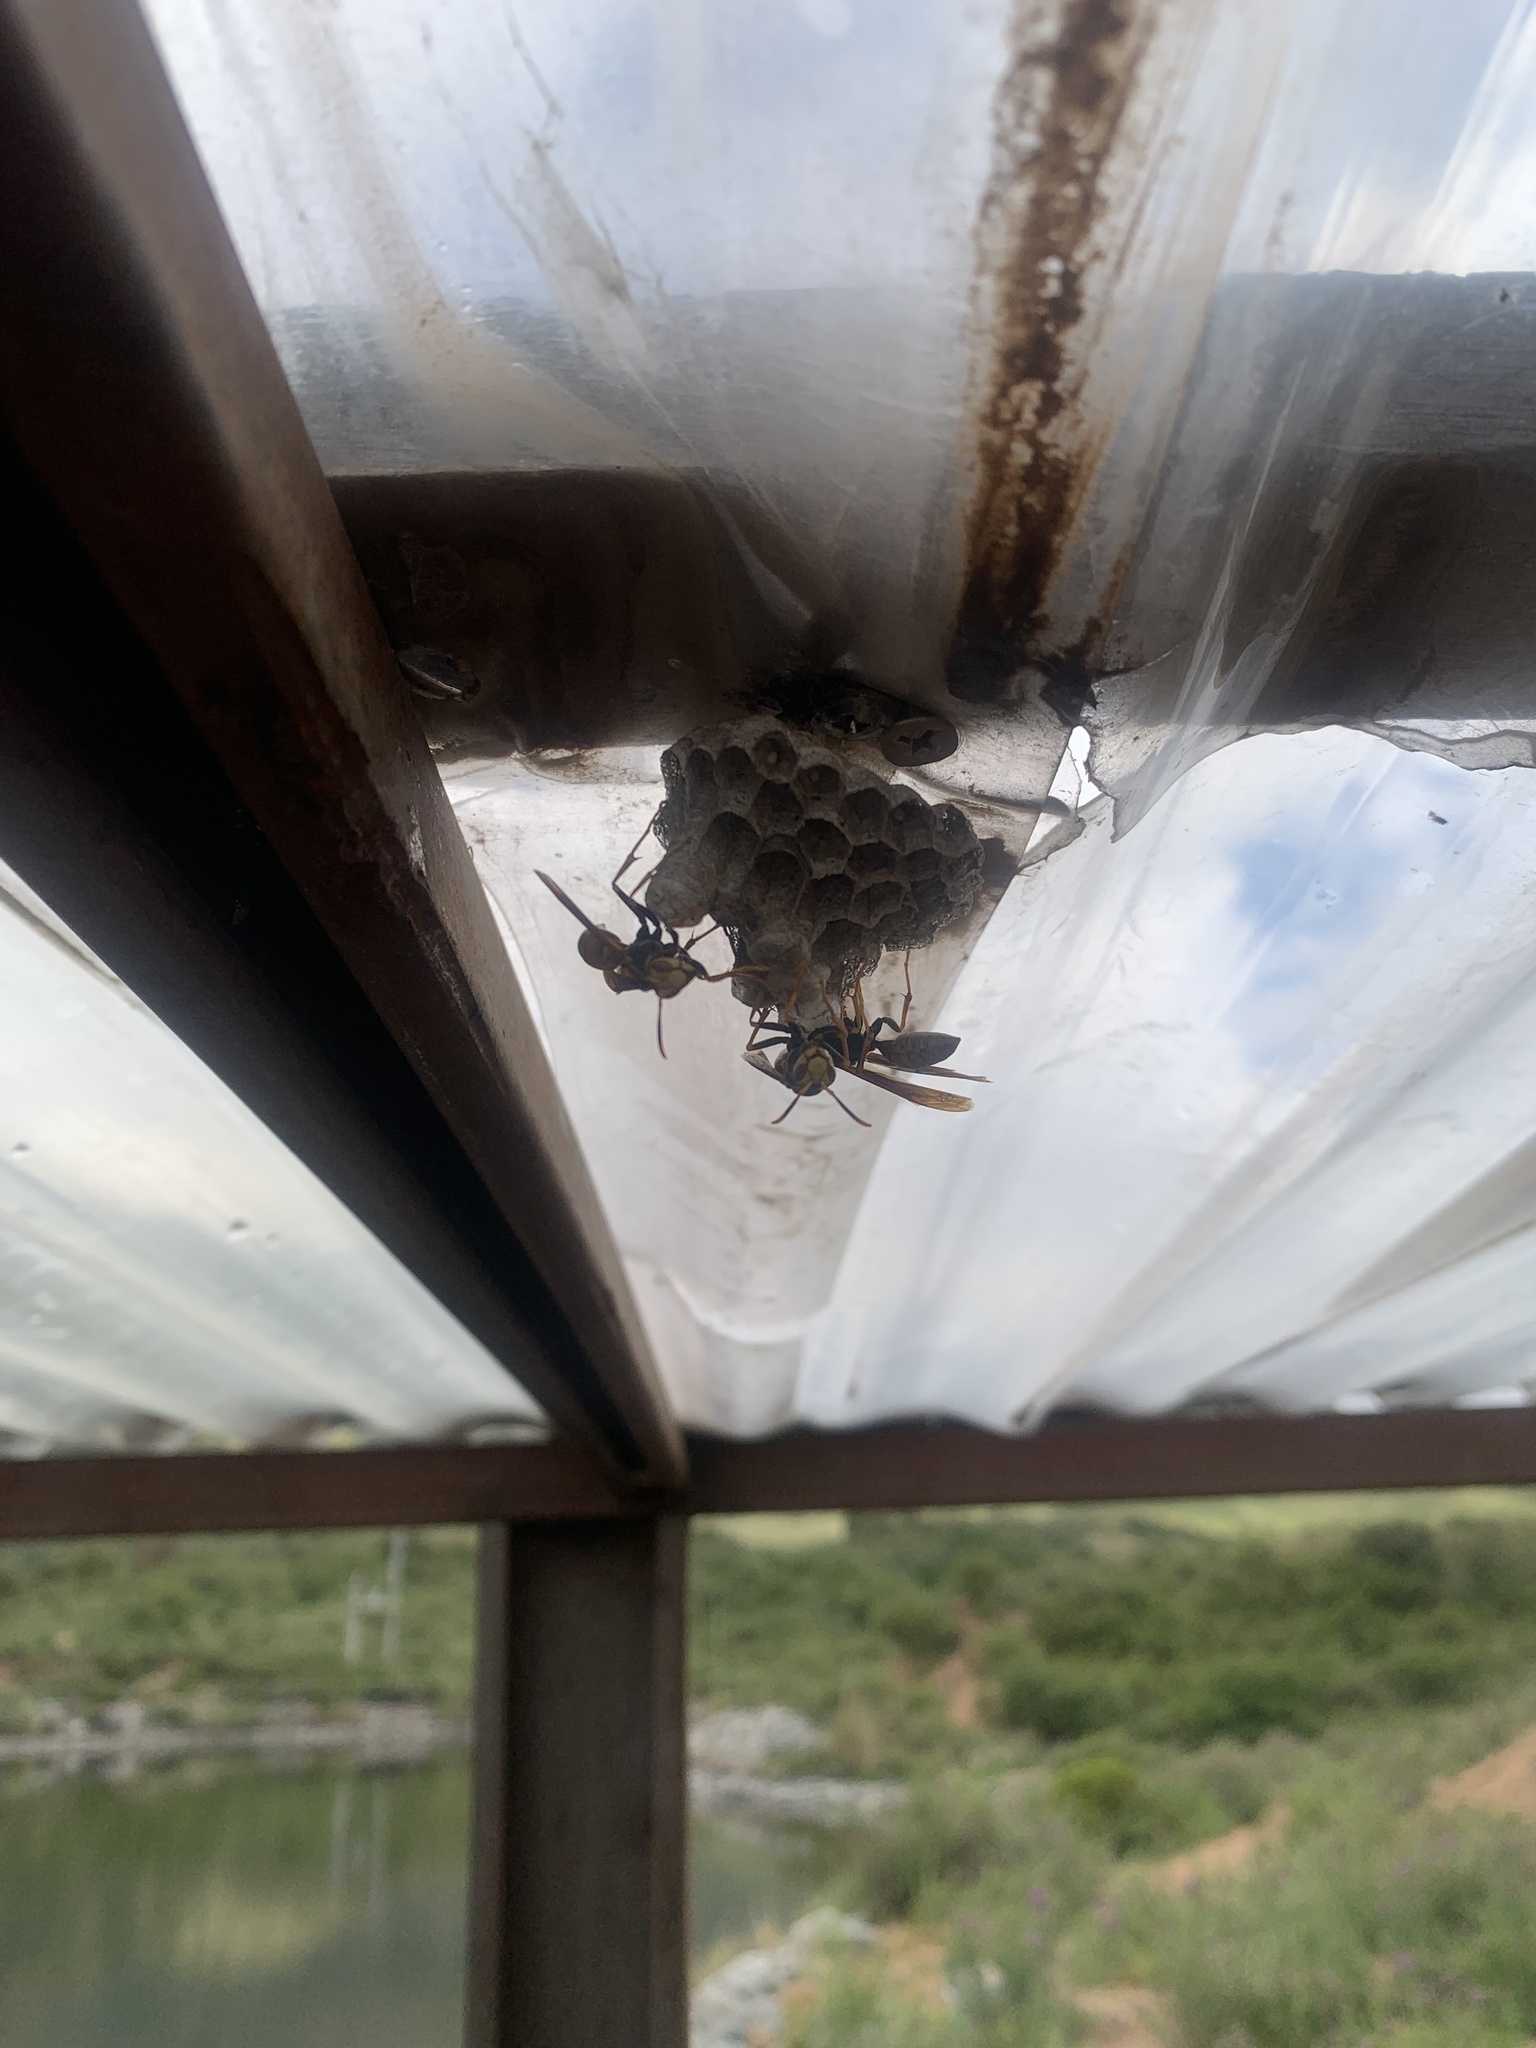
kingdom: Animalia
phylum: Arthropoda
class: Insecta
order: Hymenoptera
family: Eumenidae
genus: Polistes
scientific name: Polistes buyssoni
